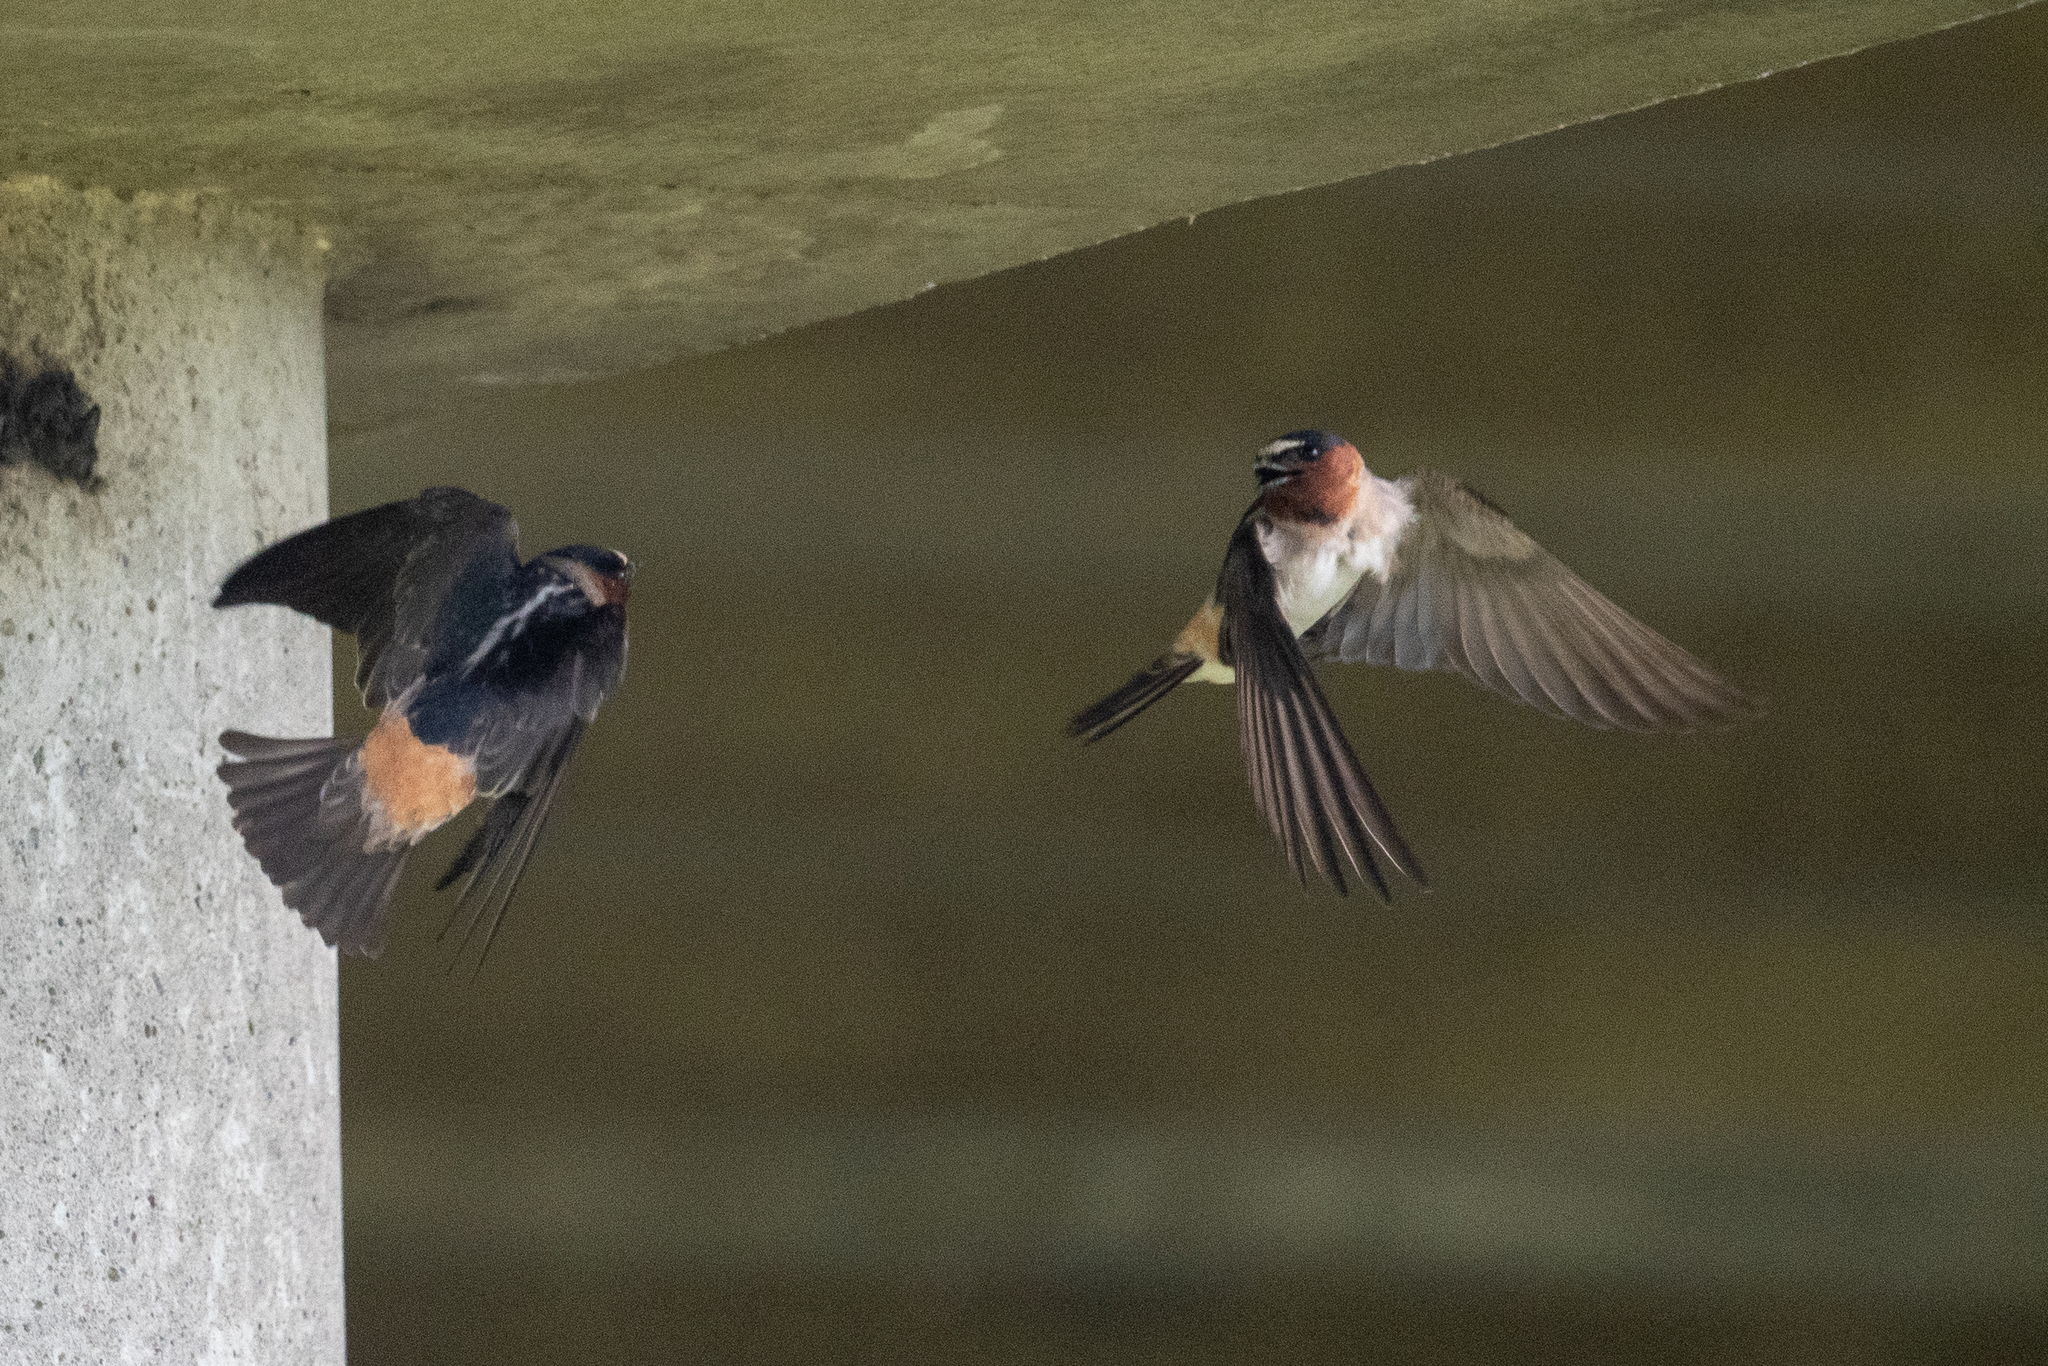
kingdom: Animalia
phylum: Chordata
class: Aves
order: Passeriformes
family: Hirundinidae
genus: Petrochelidon
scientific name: Petrochelidon pyrrhonota
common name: American cliff swallow
